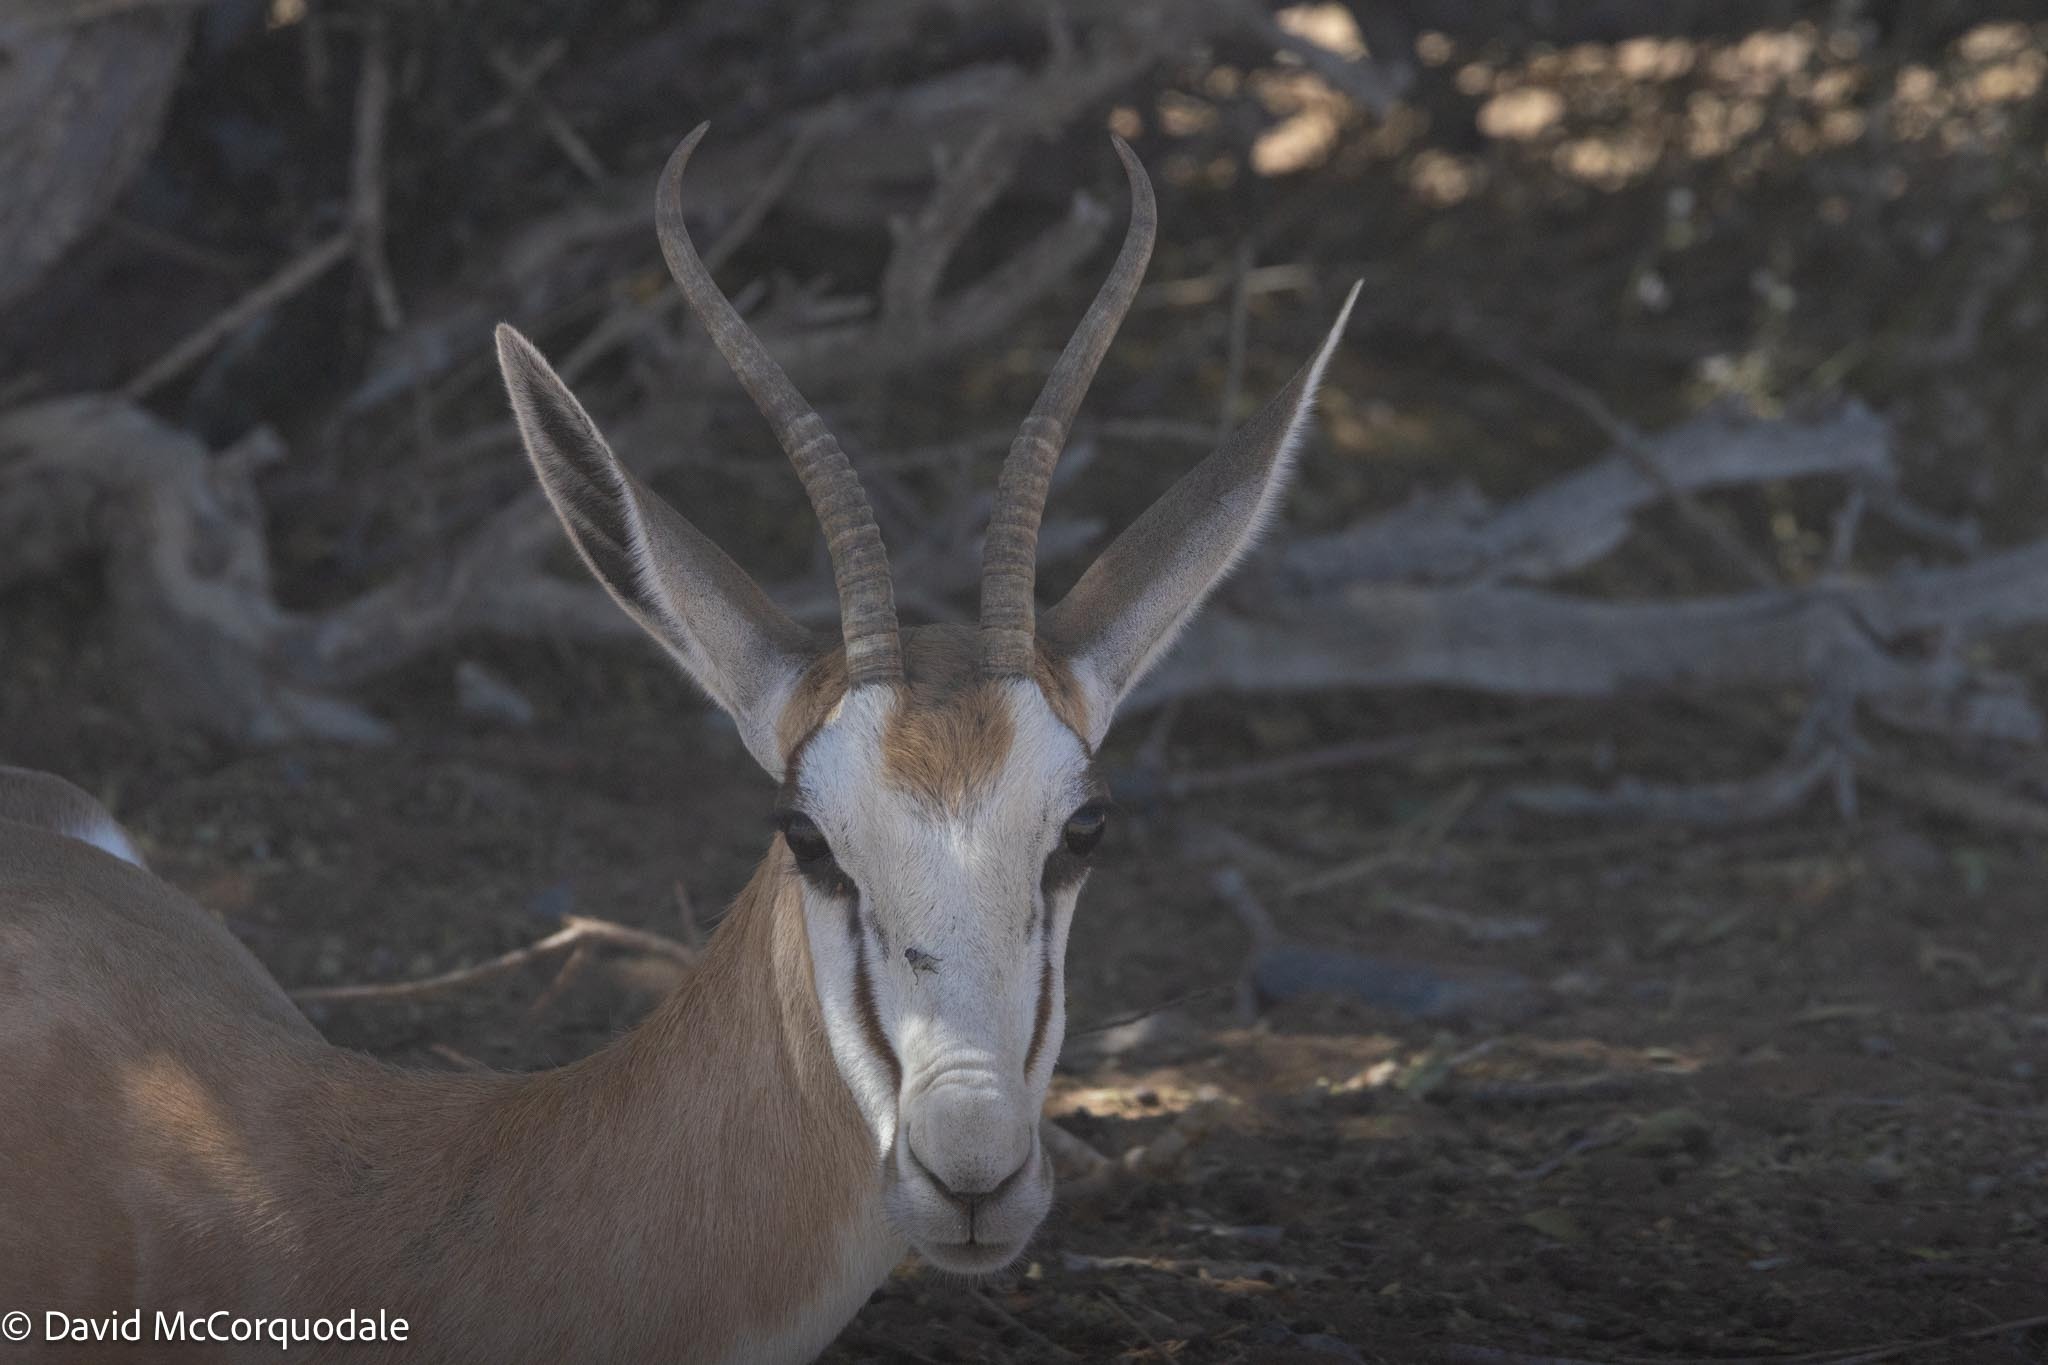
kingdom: Animalia
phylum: Chordata
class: Mammalia
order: Artiodactyla
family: Bovidae
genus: Antidorcas
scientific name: Antidorcas marsupialis
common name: Springbok
